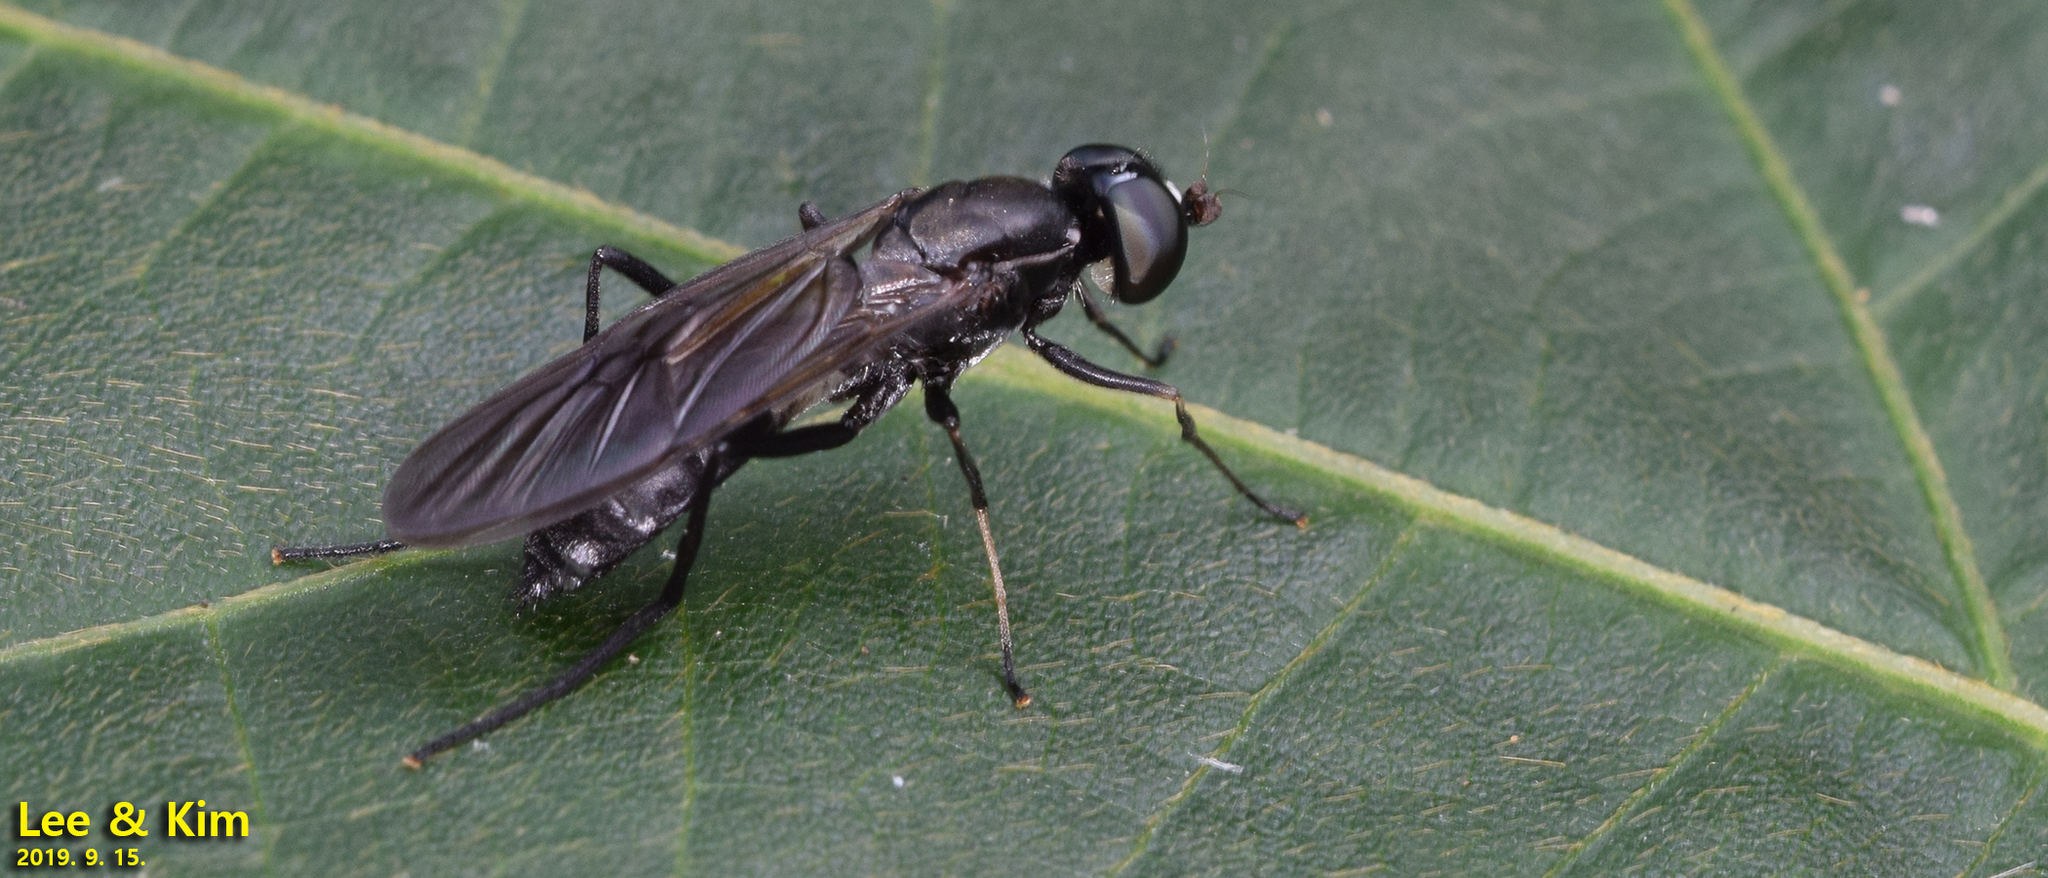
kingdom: Animalia
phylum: Arthropoda
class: Insecta
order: Diptera
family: Stratiomyidae
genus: Ptecticus
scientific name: Ptecticus japonicus
